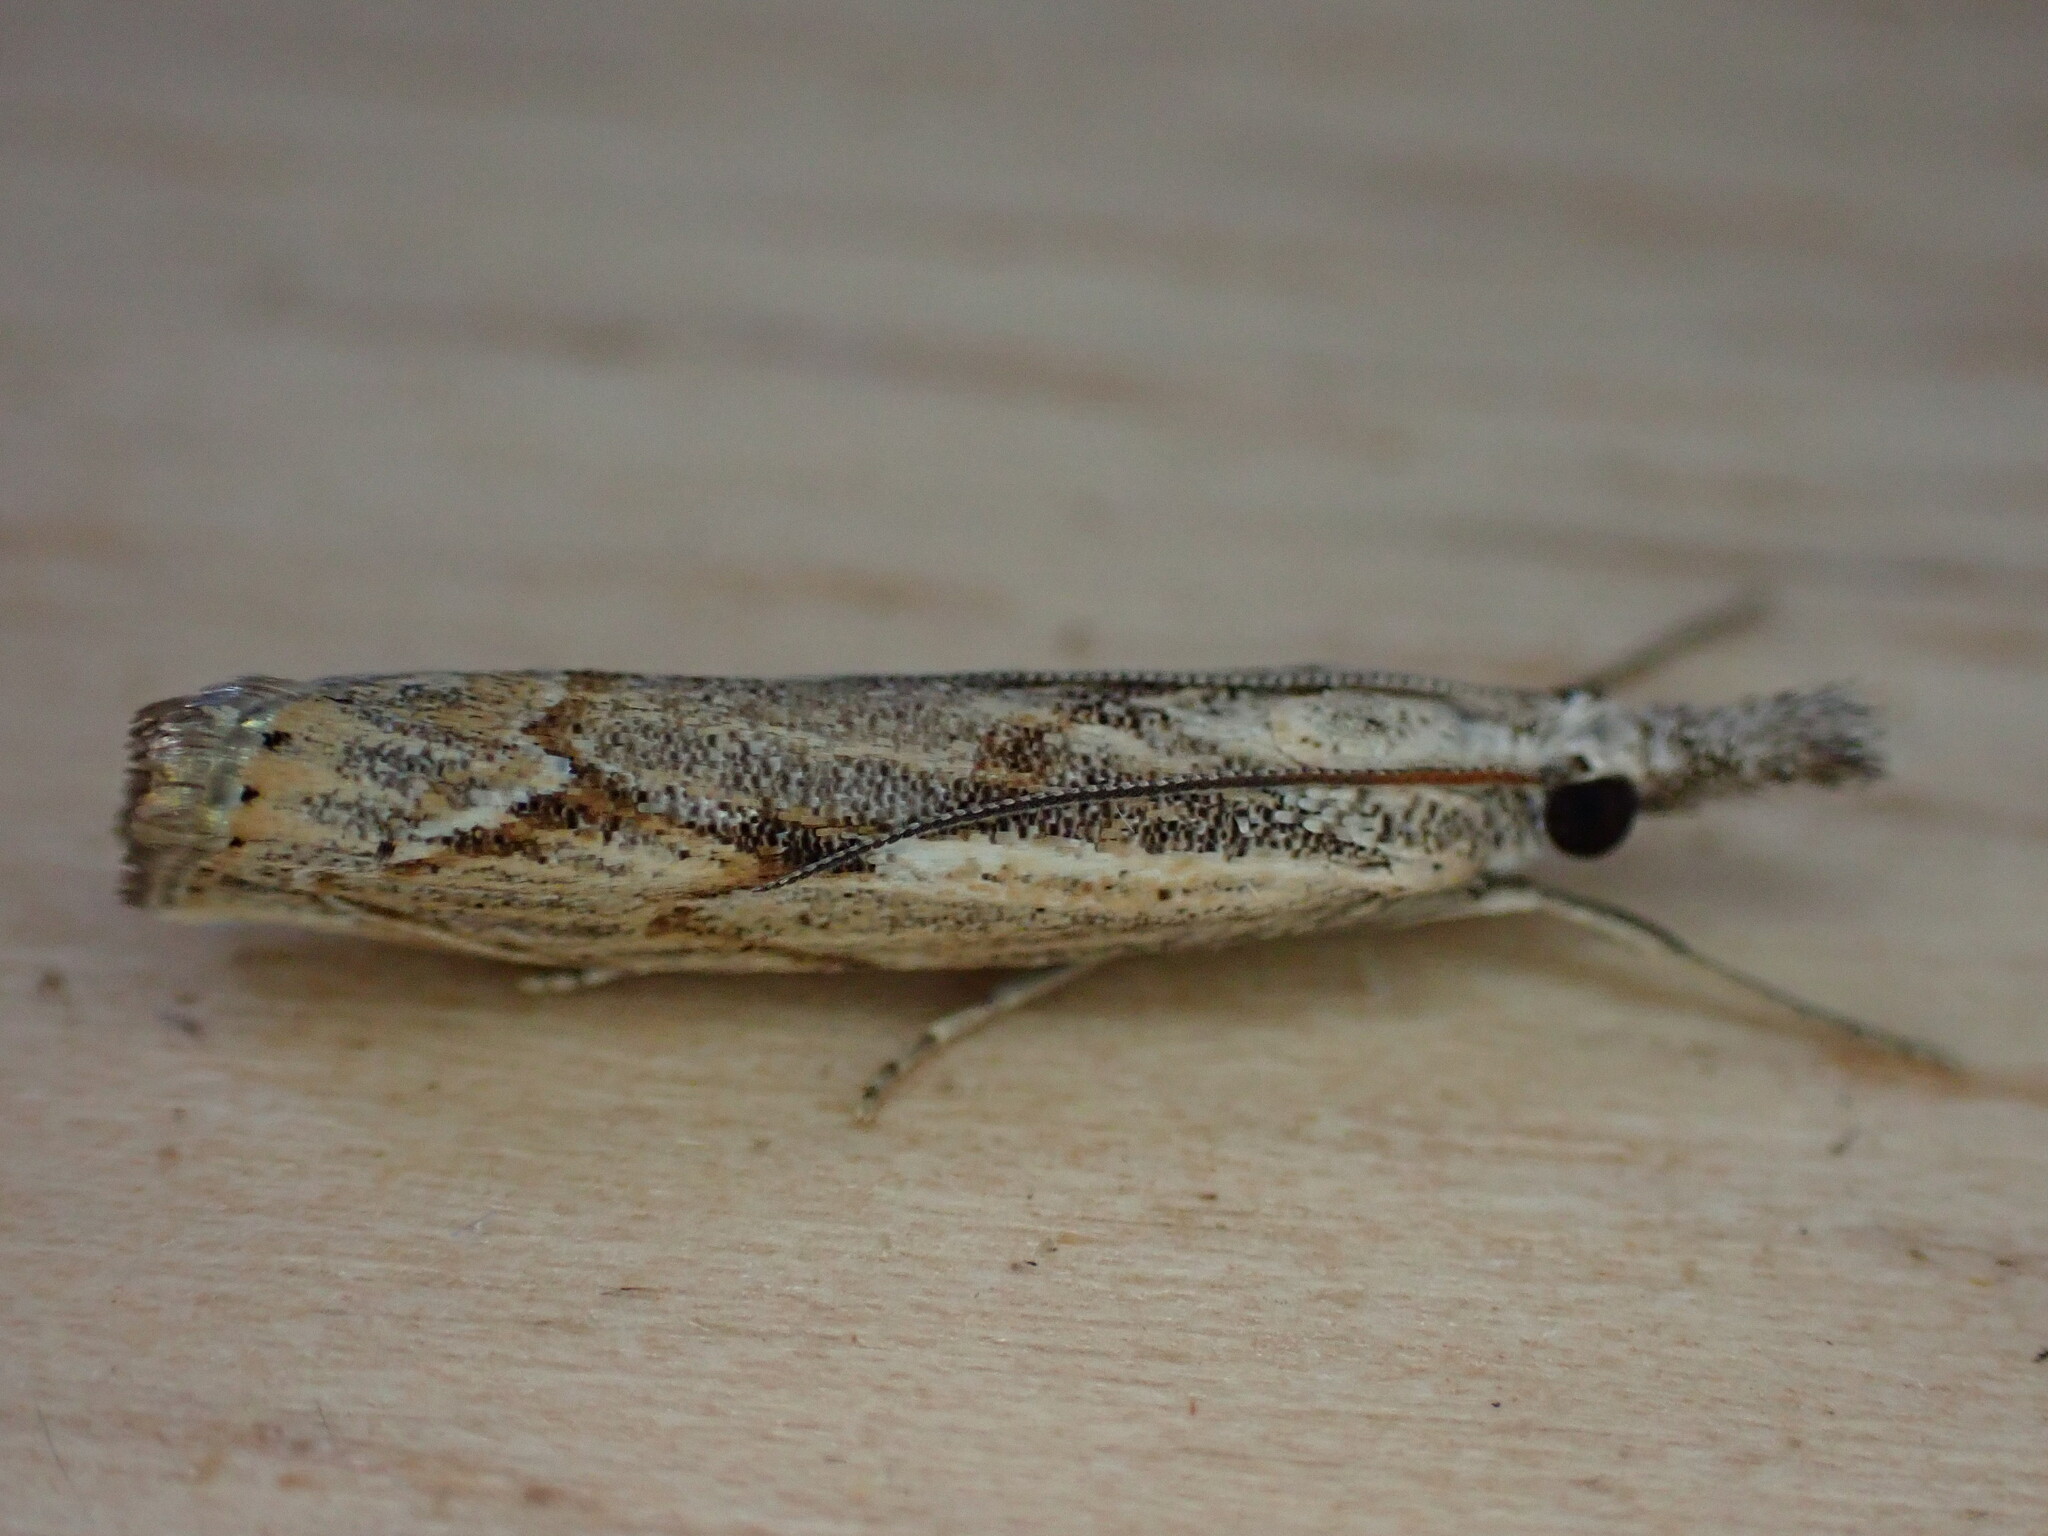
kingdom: Animalia
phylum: Arthropoda
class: Insecta
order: Lepidoptera
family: Crambidae
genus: Agriphila
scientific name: Agriphila geniculea
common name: Elbow-stripe grass-veneer
